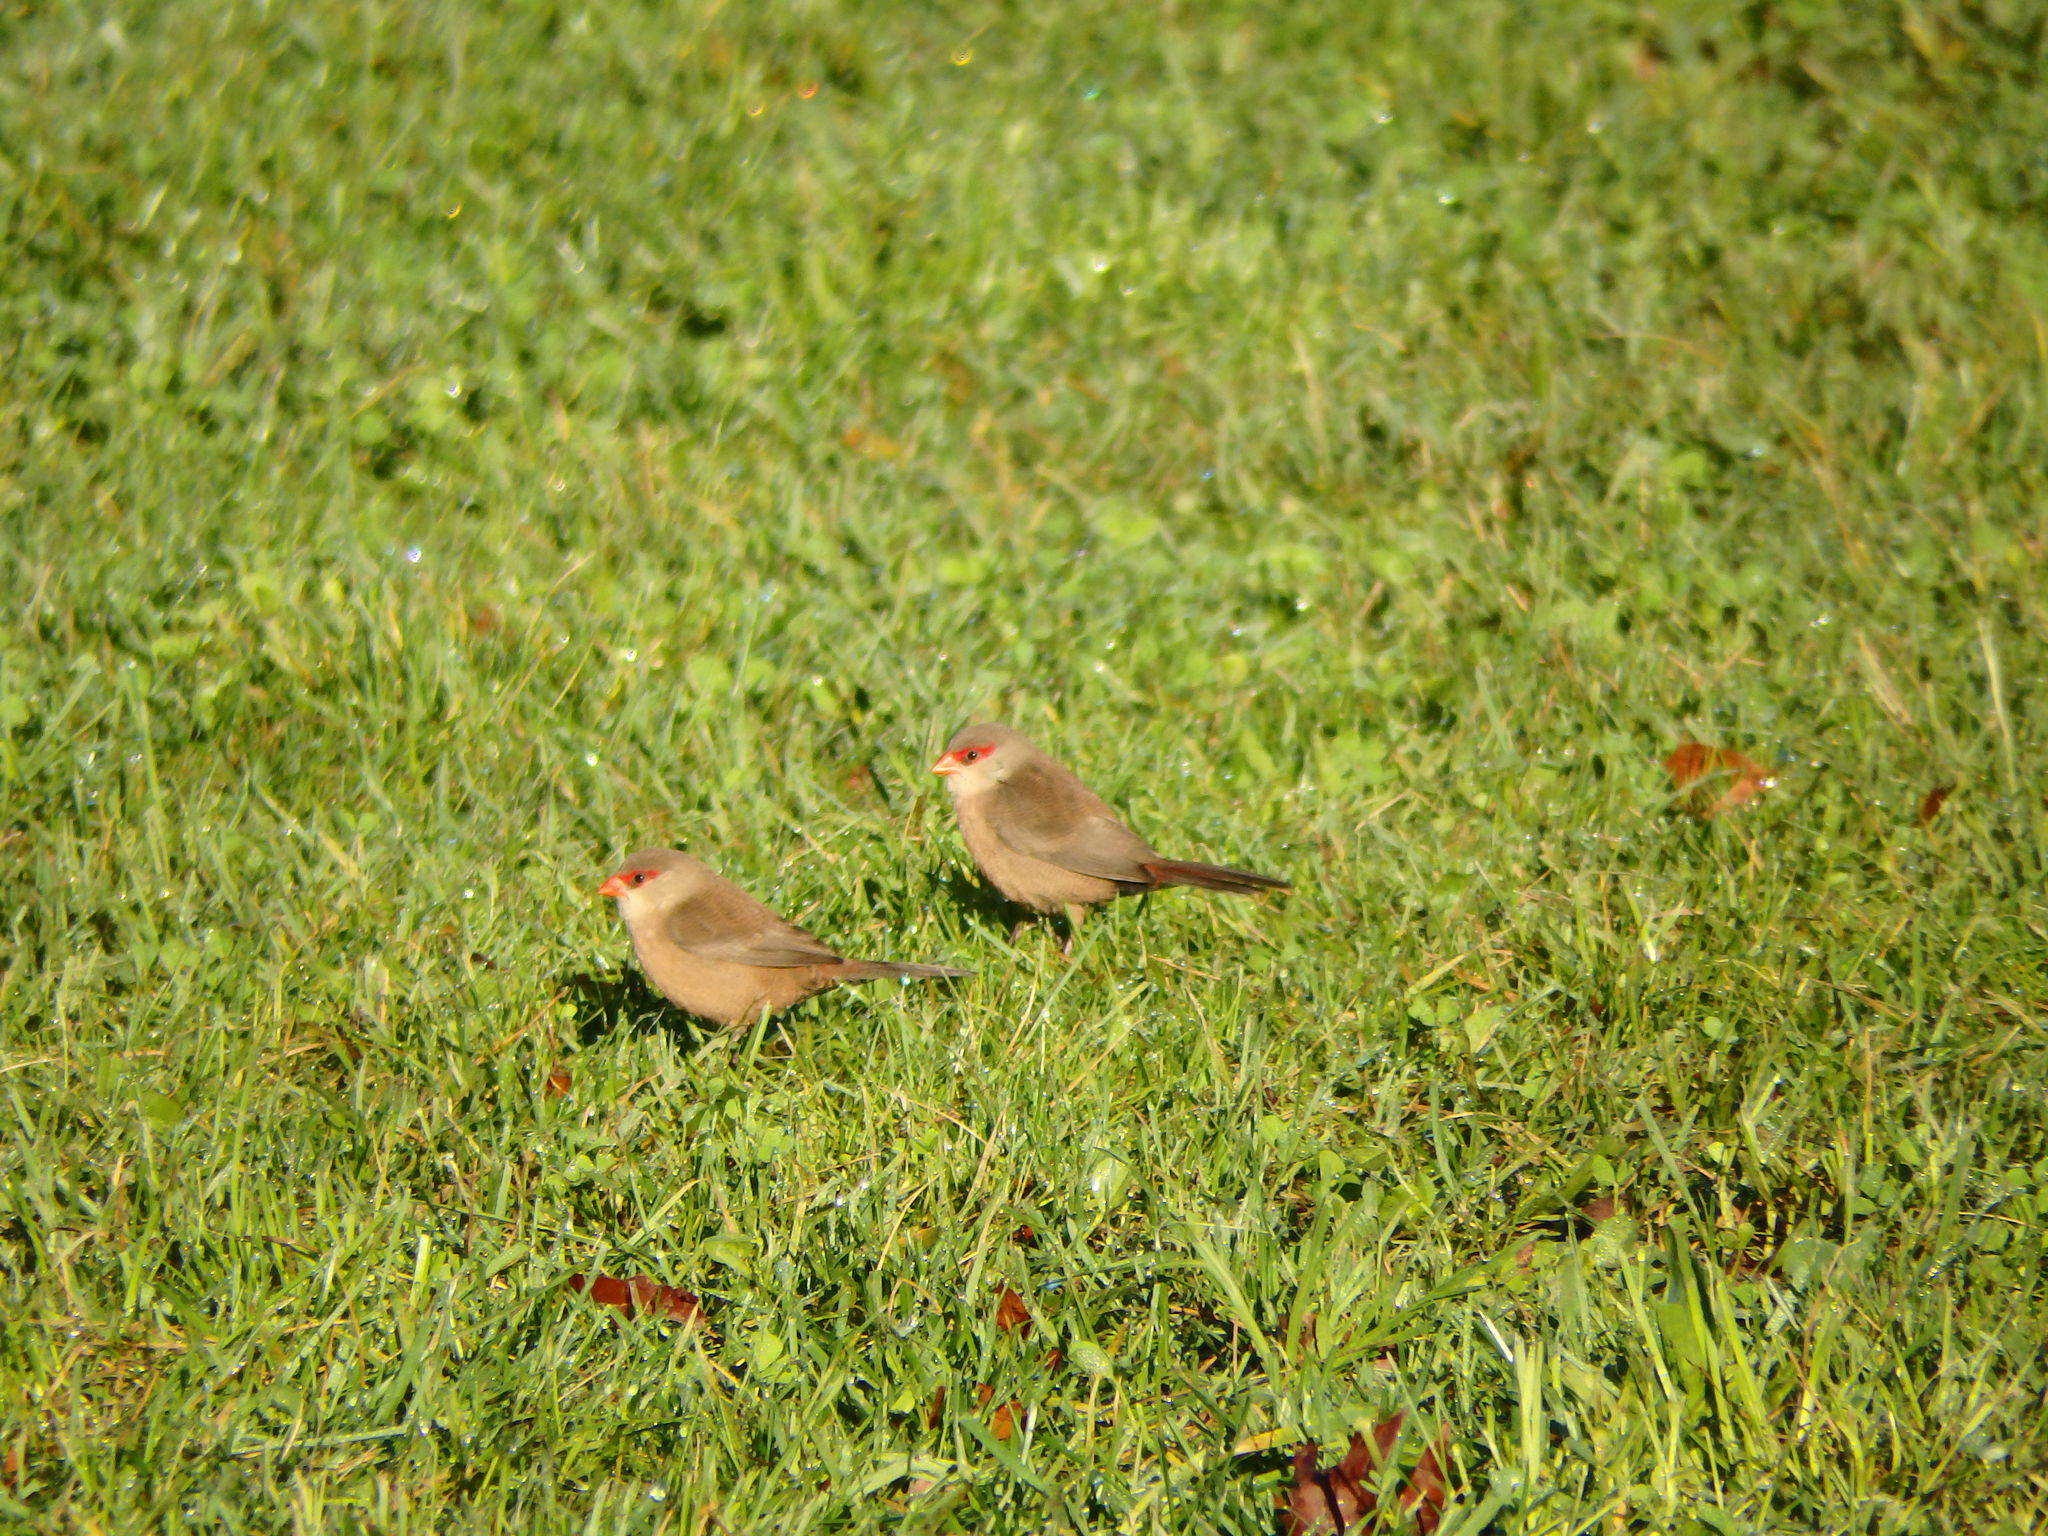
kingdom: Animalia
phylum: Chordata
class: Aves
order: Passeriformes
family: Estrildidae
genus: Estrilda
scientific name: Estrilda astrild
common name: Common waxbill
